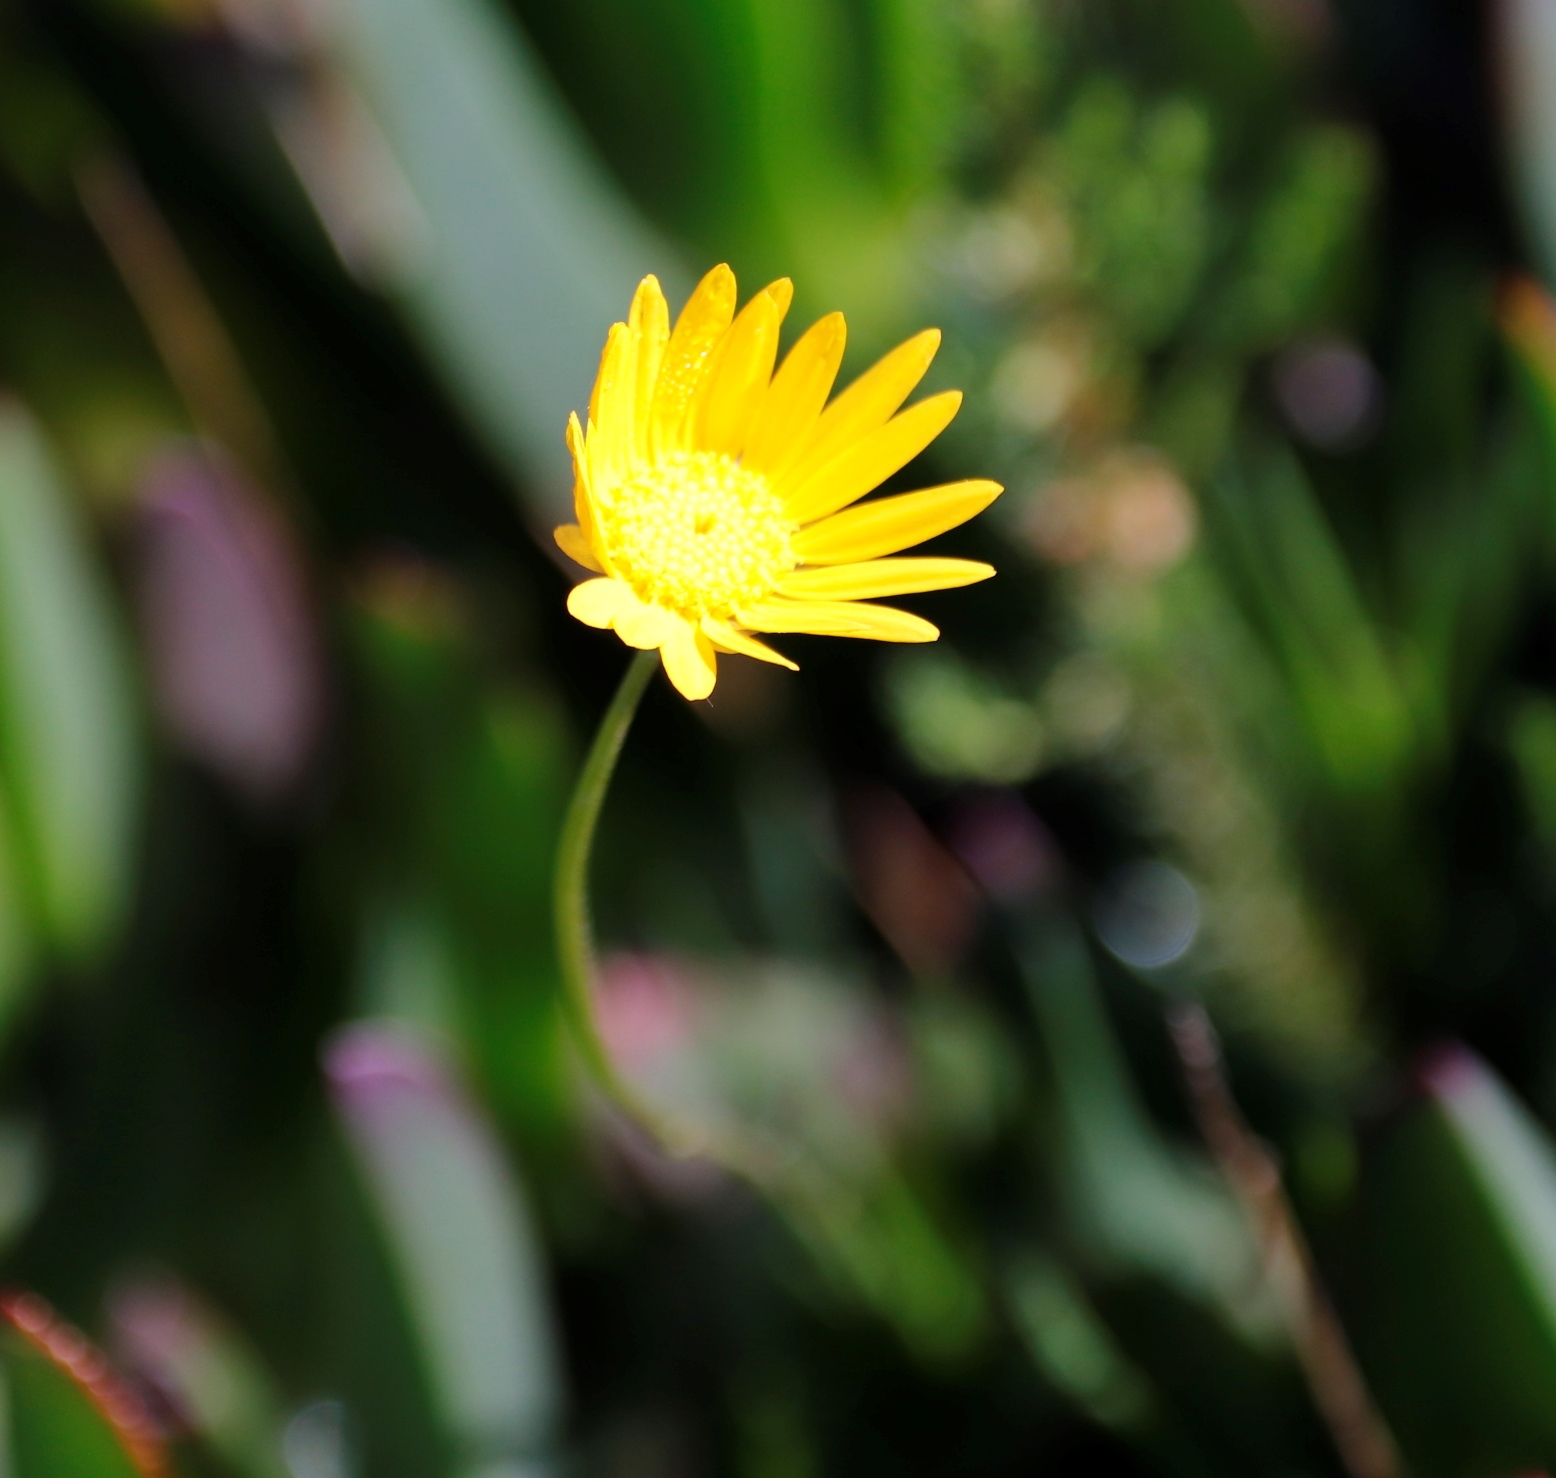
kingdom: Plantae
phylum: Tracheophyta
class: Magnoliopsida
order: Asterales
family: Asteraceae
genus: Ursinia
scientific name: Ursinia tenuifolia
